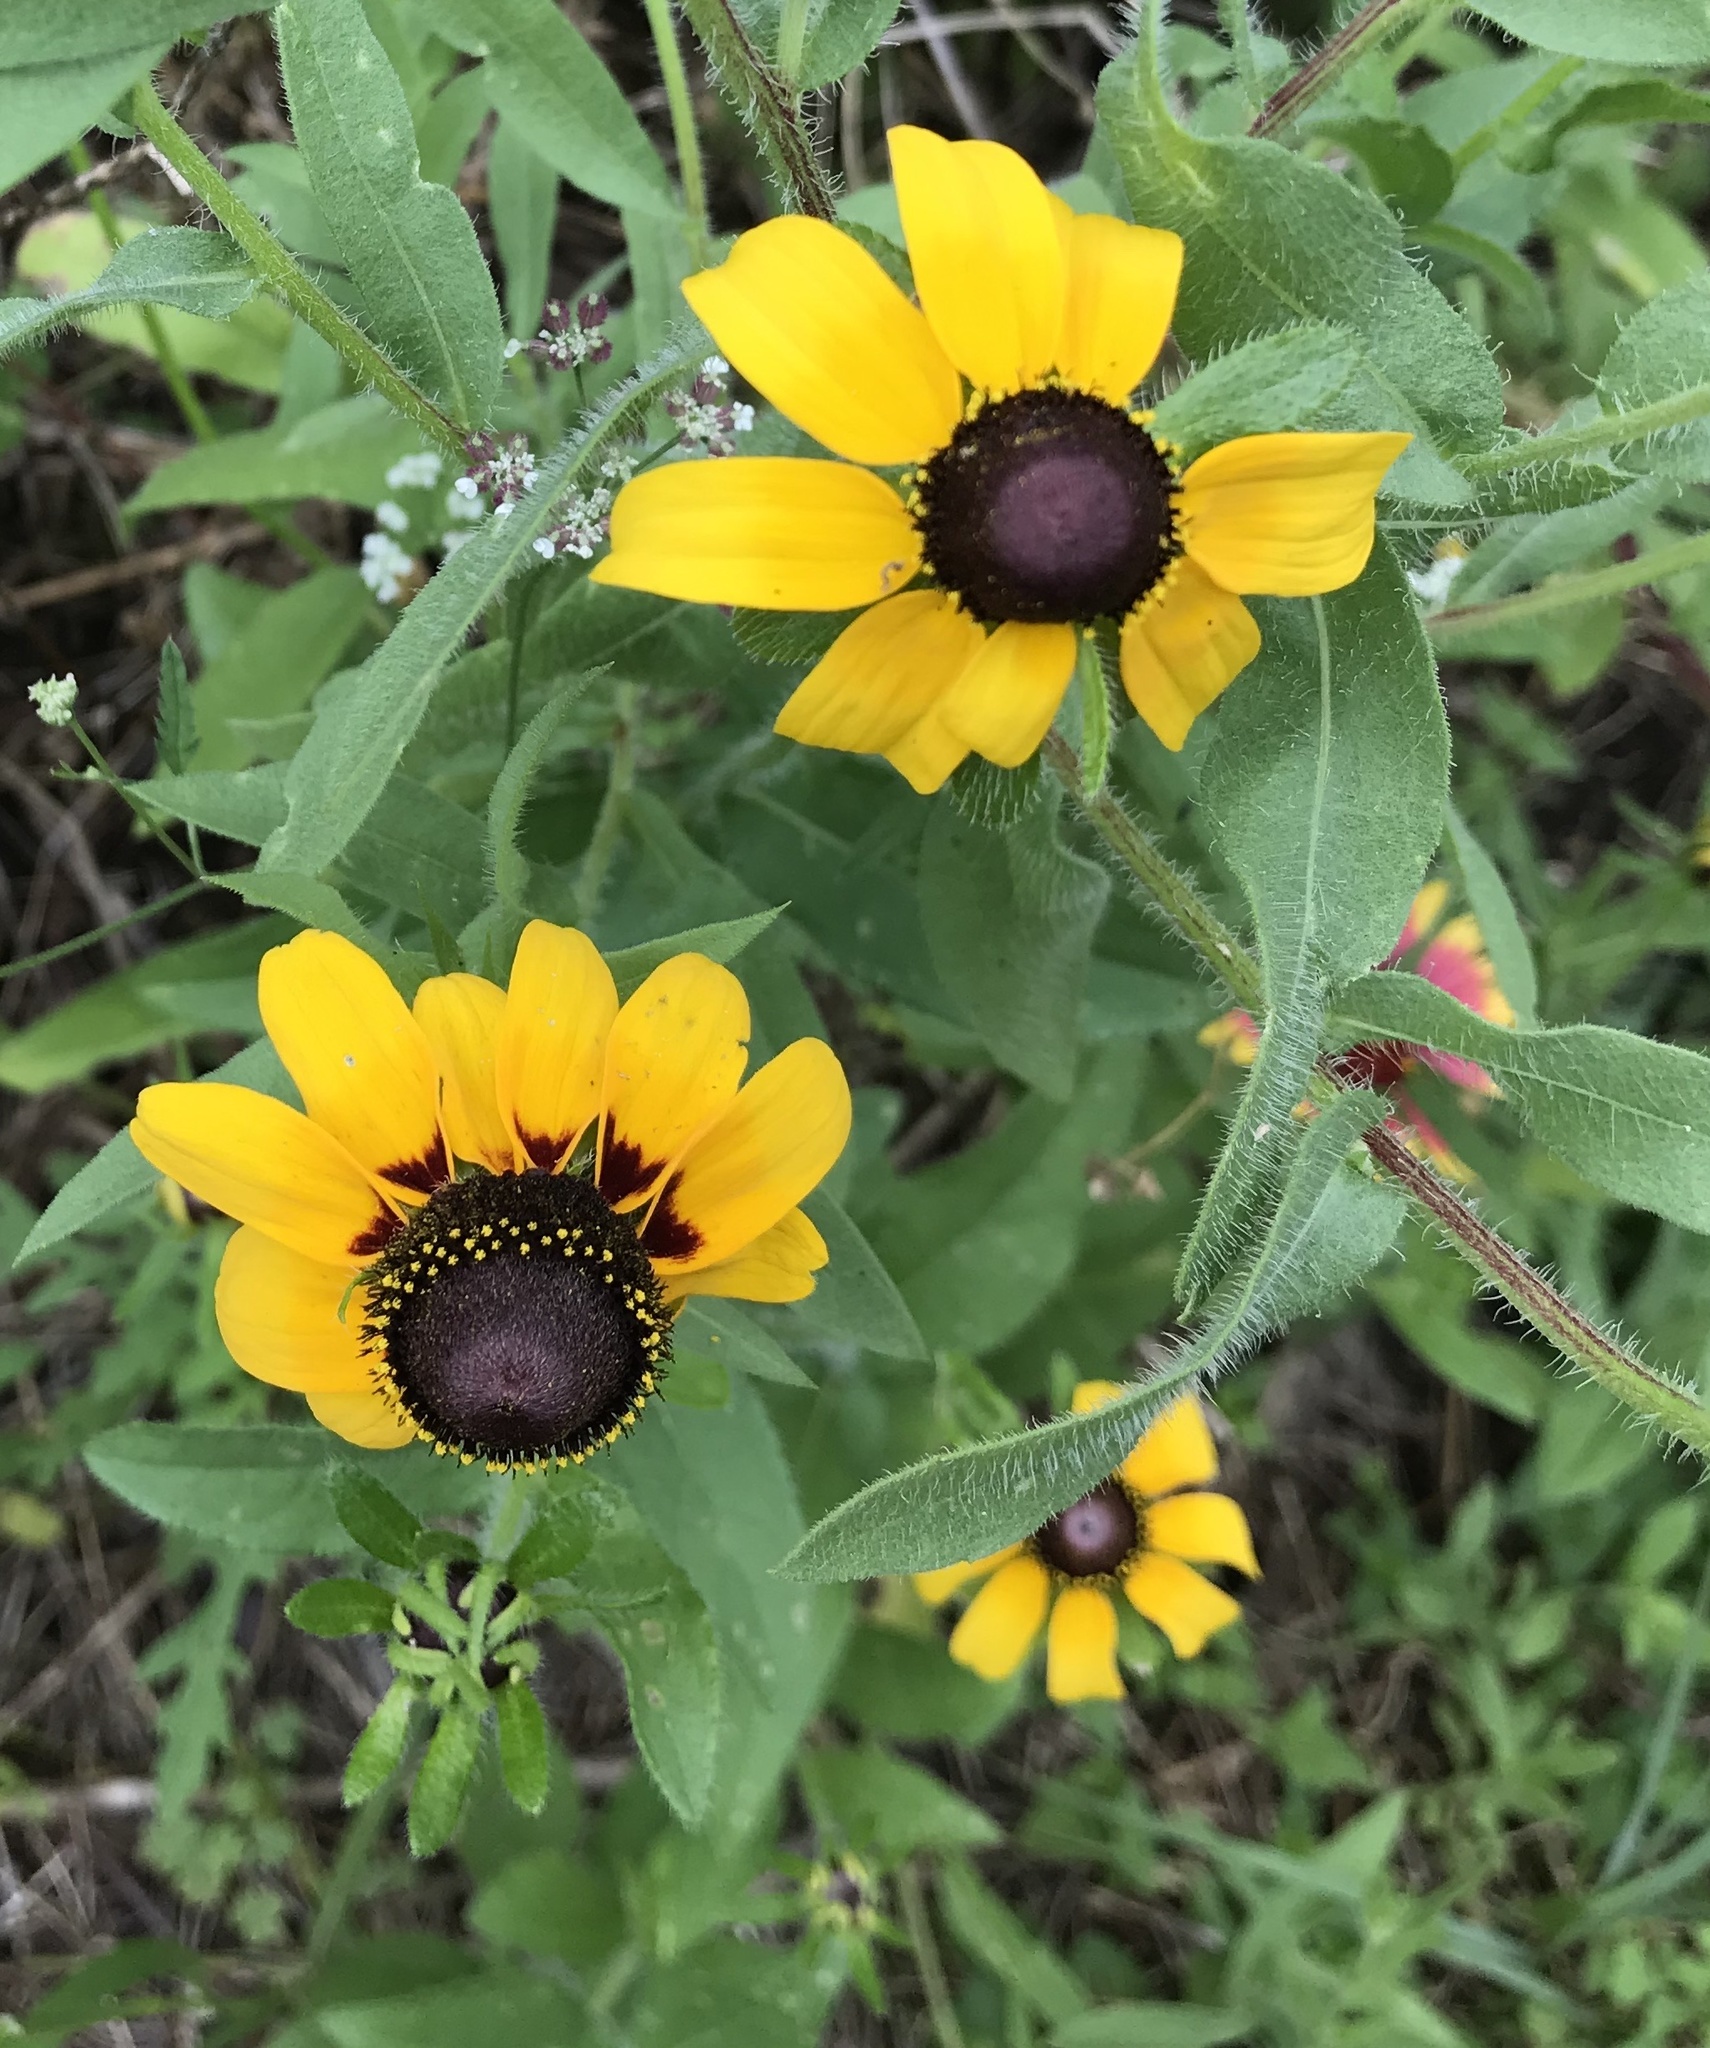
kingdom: Plantae
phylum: Tracheophyta
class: Magnoliopsida
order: Asterales
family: Asteraceae
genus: Rudbeckia
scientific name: Rudbeckia hirta
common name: Black-eyed-susan
